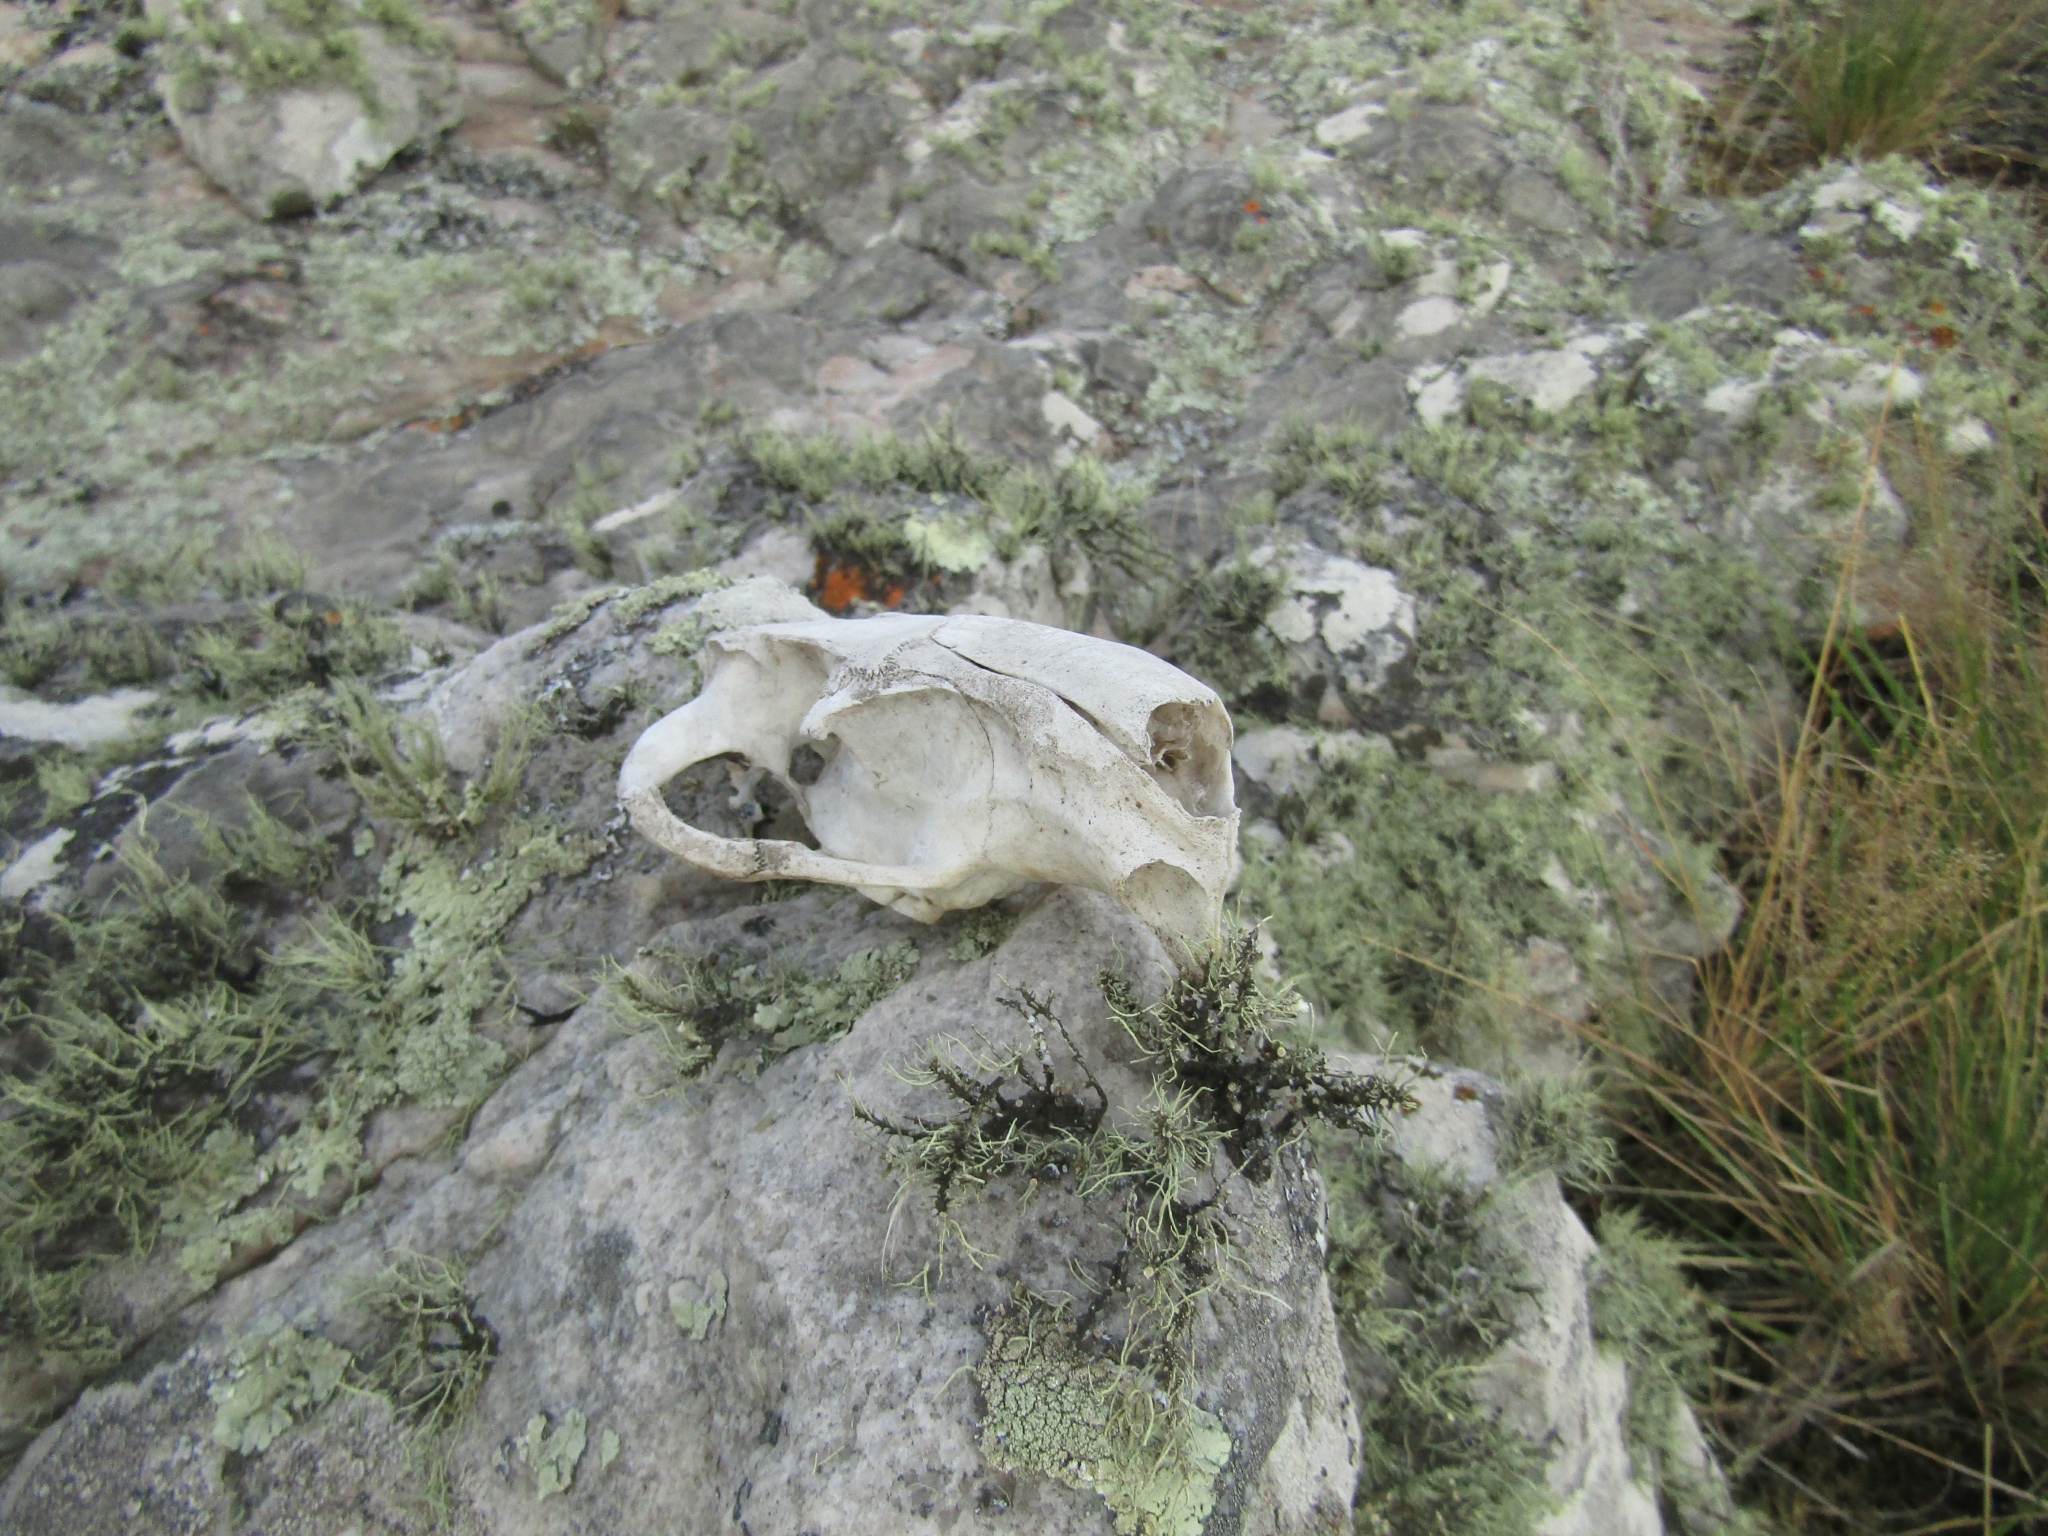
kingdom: Animalia
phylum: Chordata
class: Mammalia
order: Rodentia
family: Myocastoridae
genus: Myocastor
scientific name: Myocastor coypus
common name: Coypu
